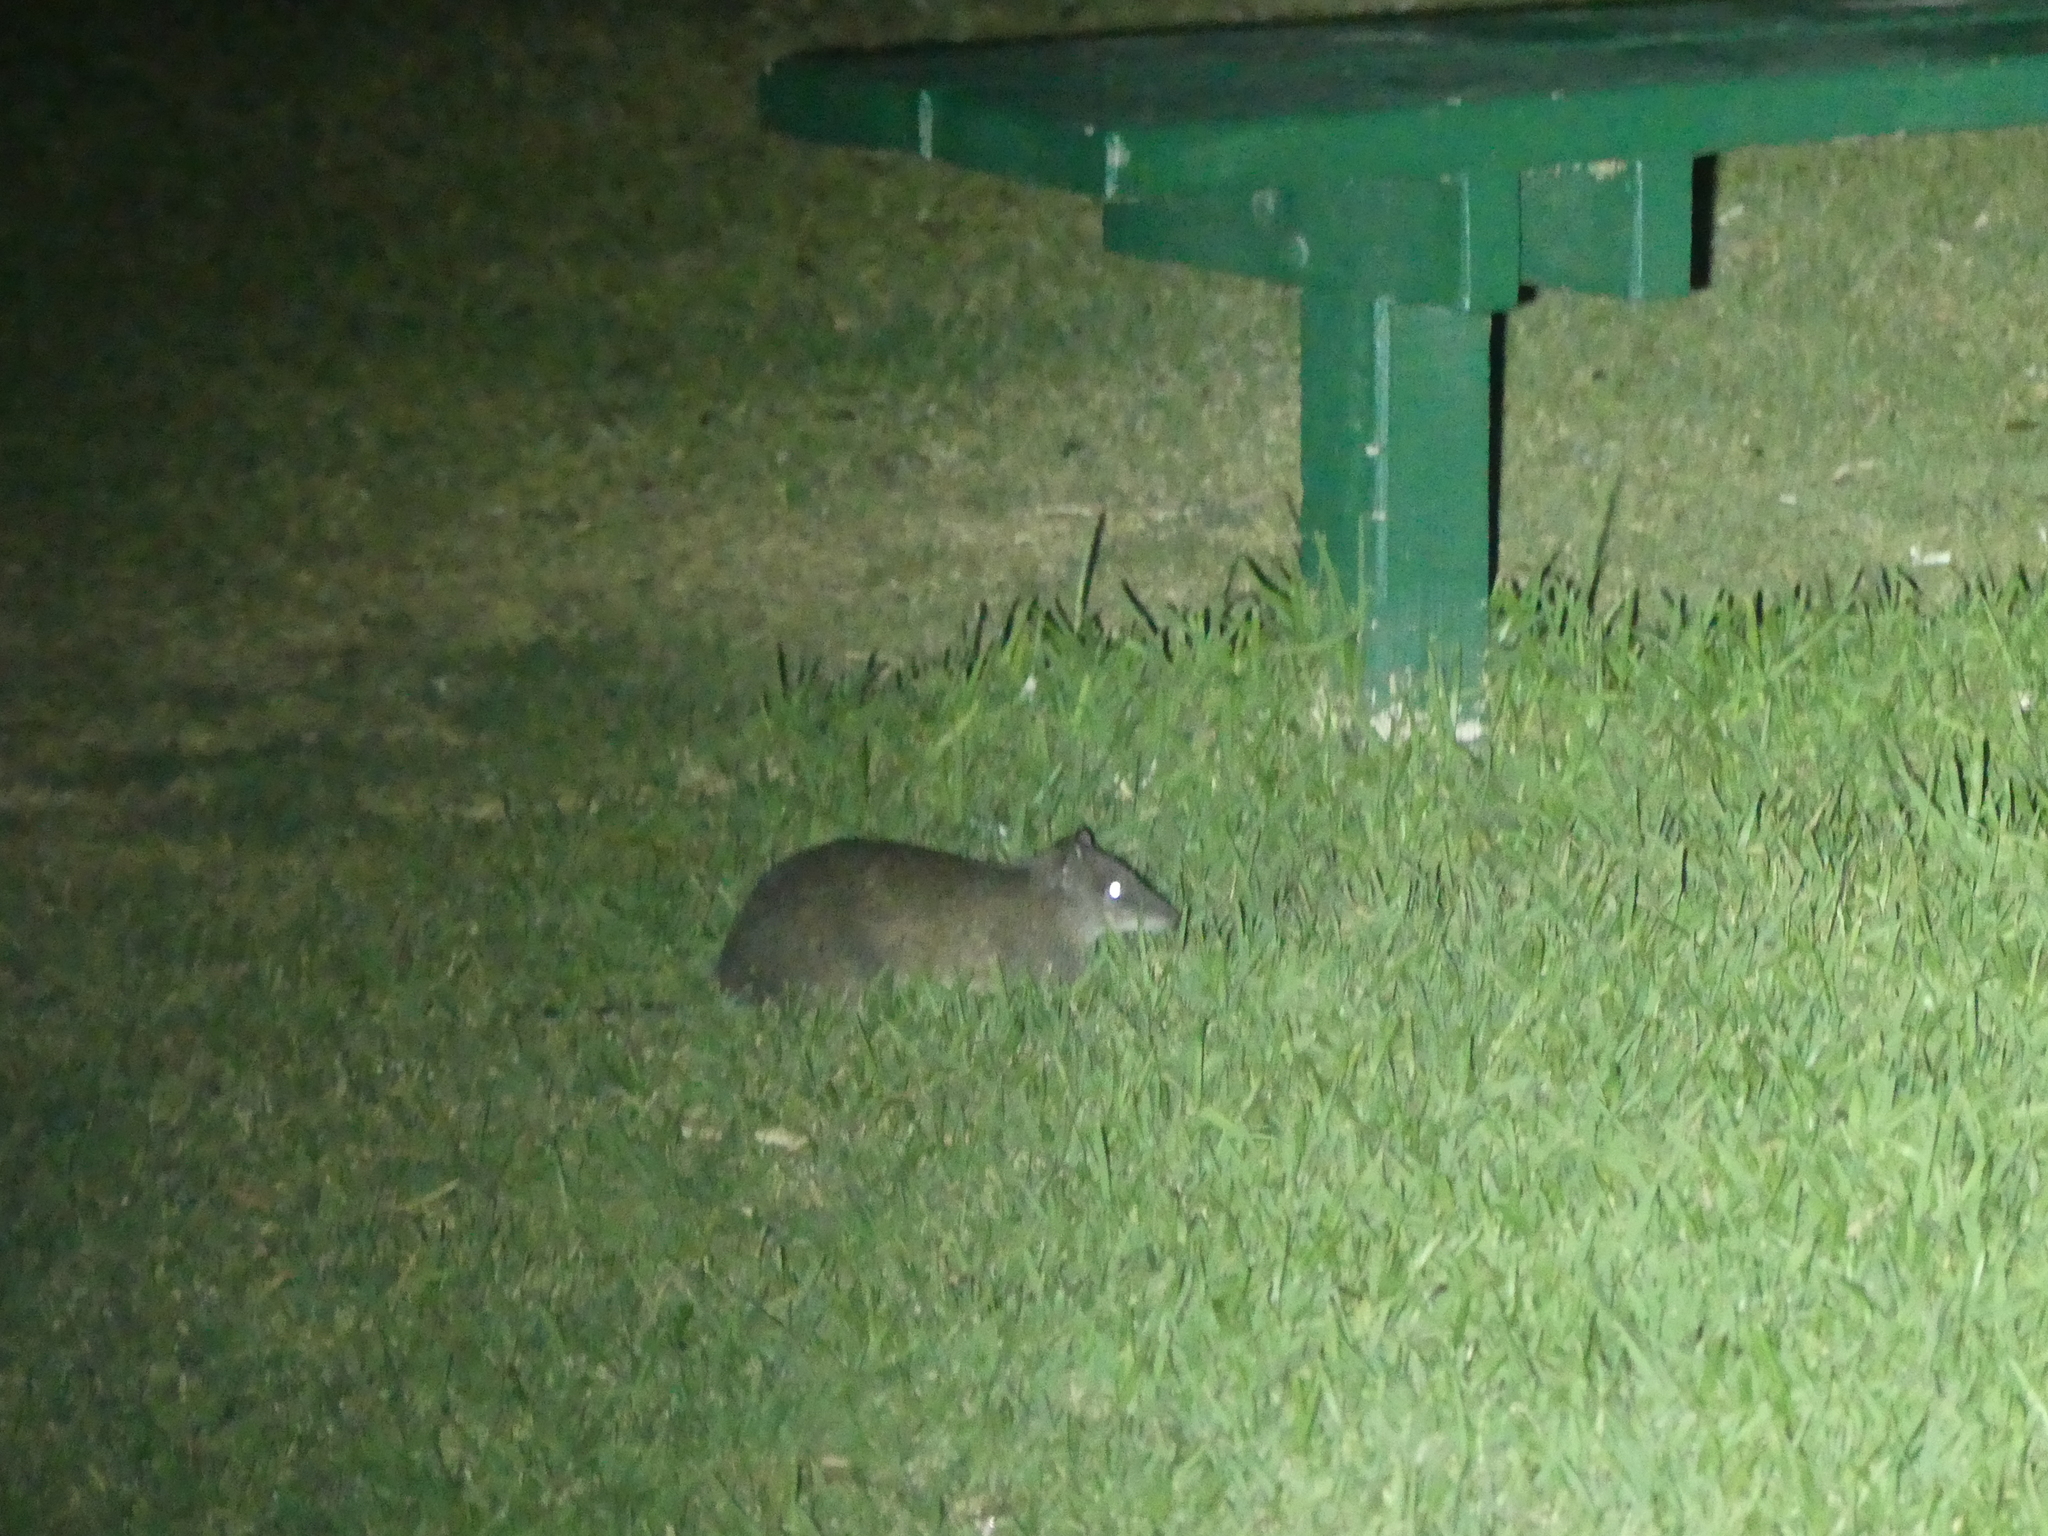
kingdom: Animalia
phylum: Chordata
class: Mammalia
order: Peramelemorphia
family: Peramelidae
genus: Isoodon
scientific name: Isoodon fusciventer
